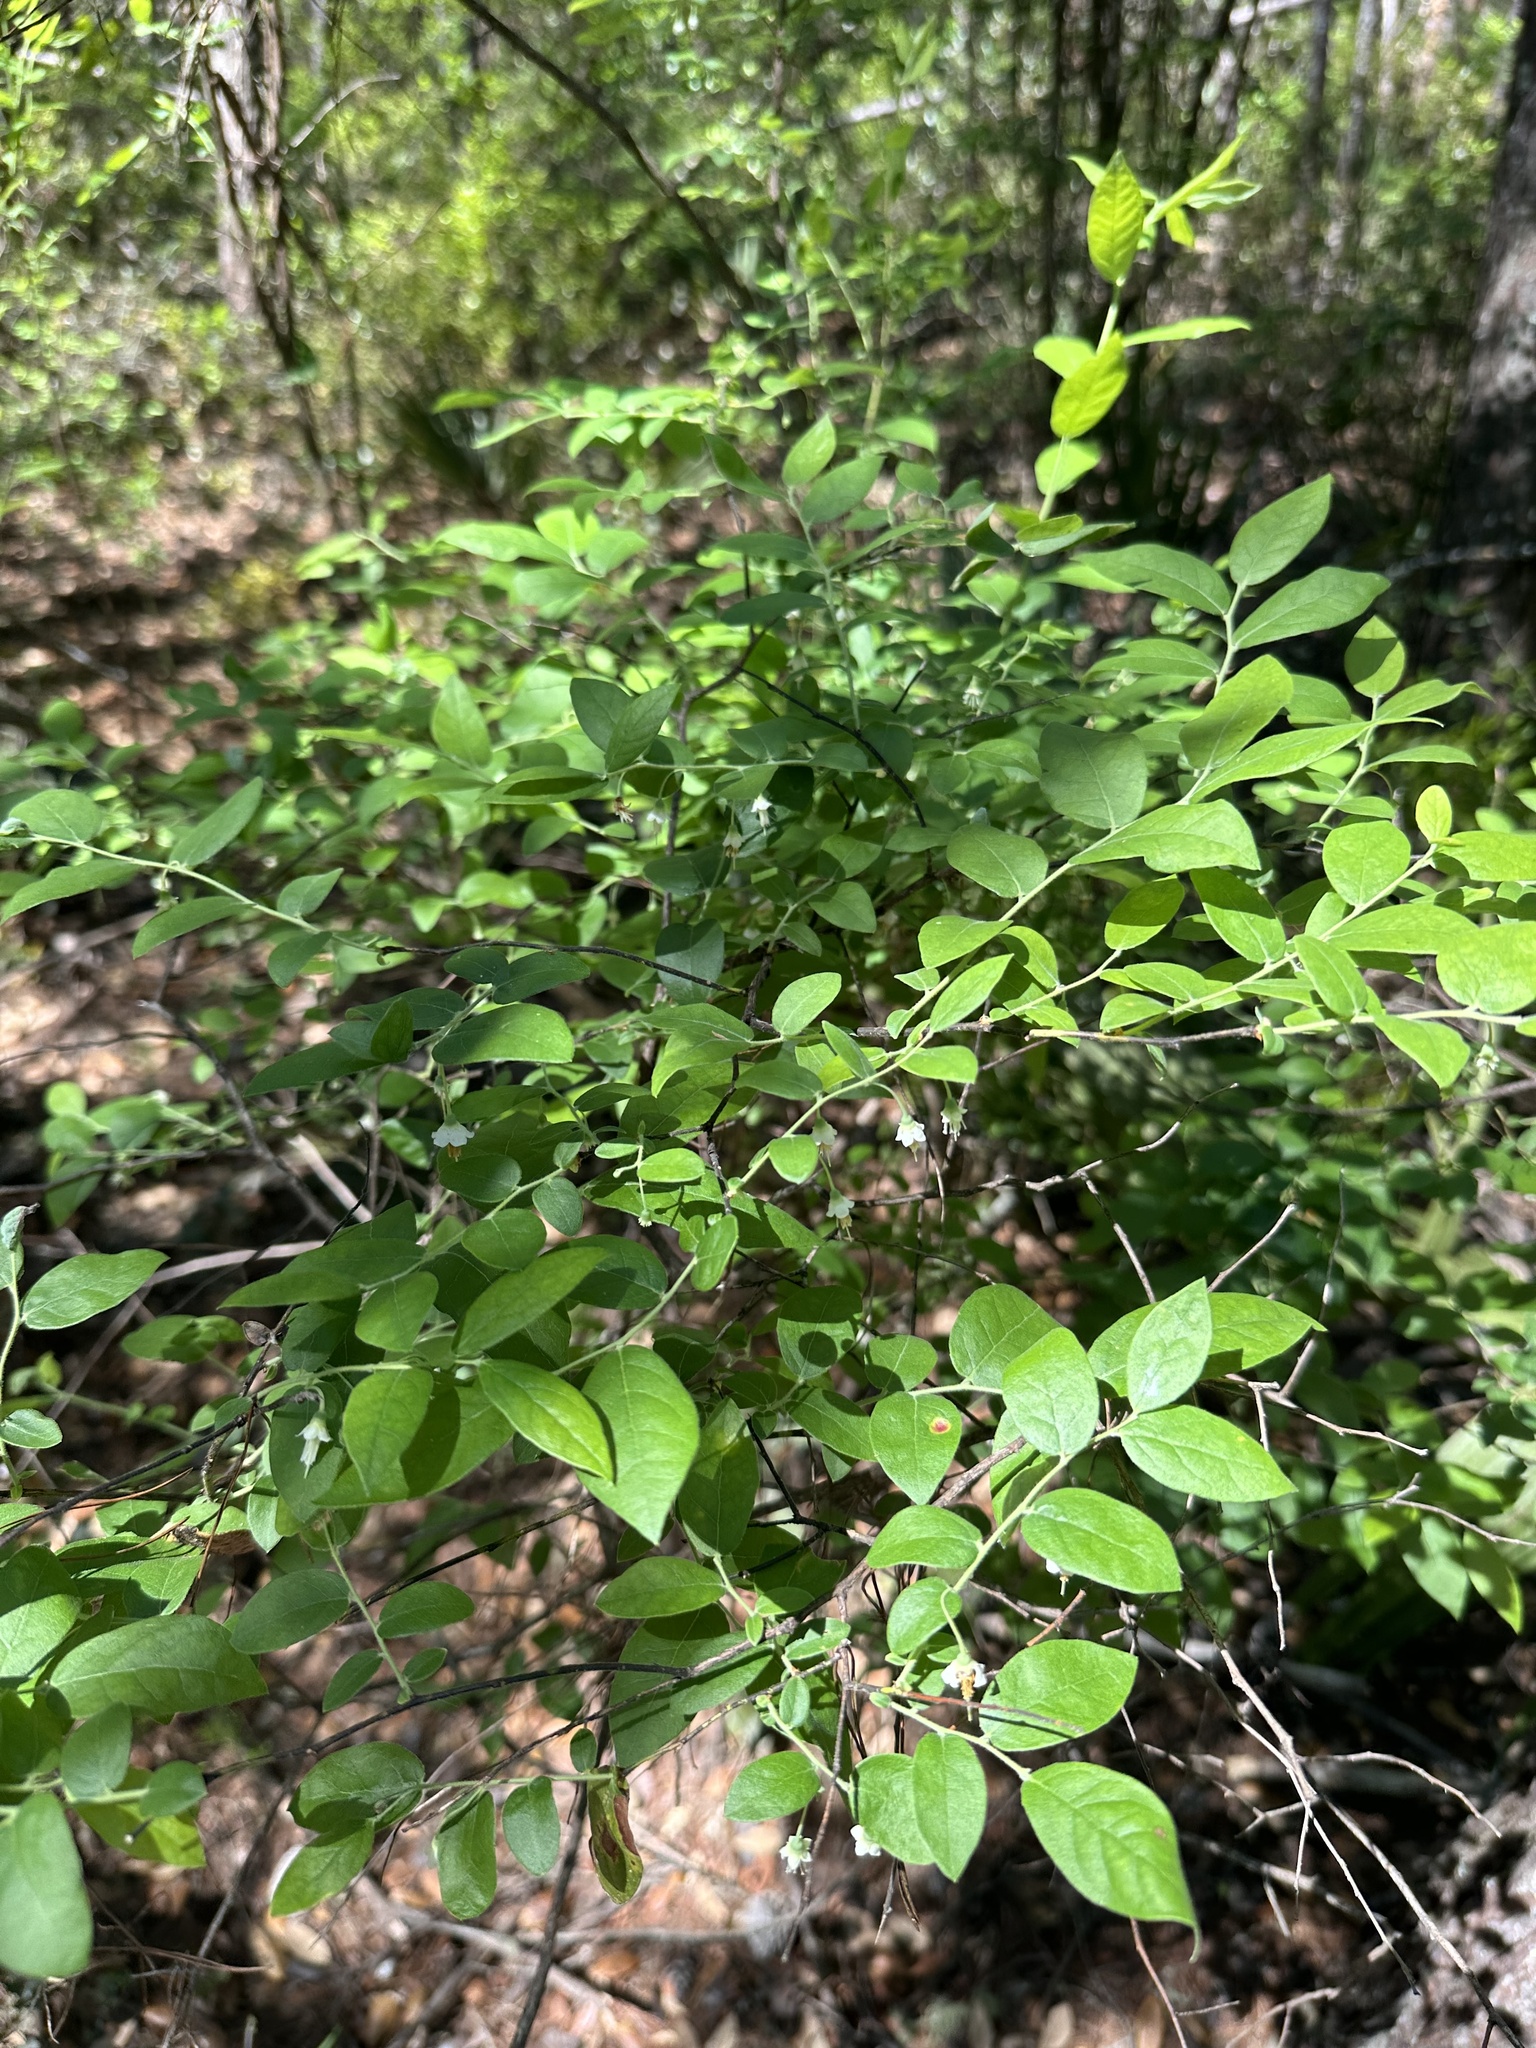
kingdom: Plantae
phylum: Tracheophyta
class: Magnoliopsida
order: Ericales
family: Ericaceae
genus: Vaccinium
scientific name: Vaccinium stamineum
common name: Deerberry
